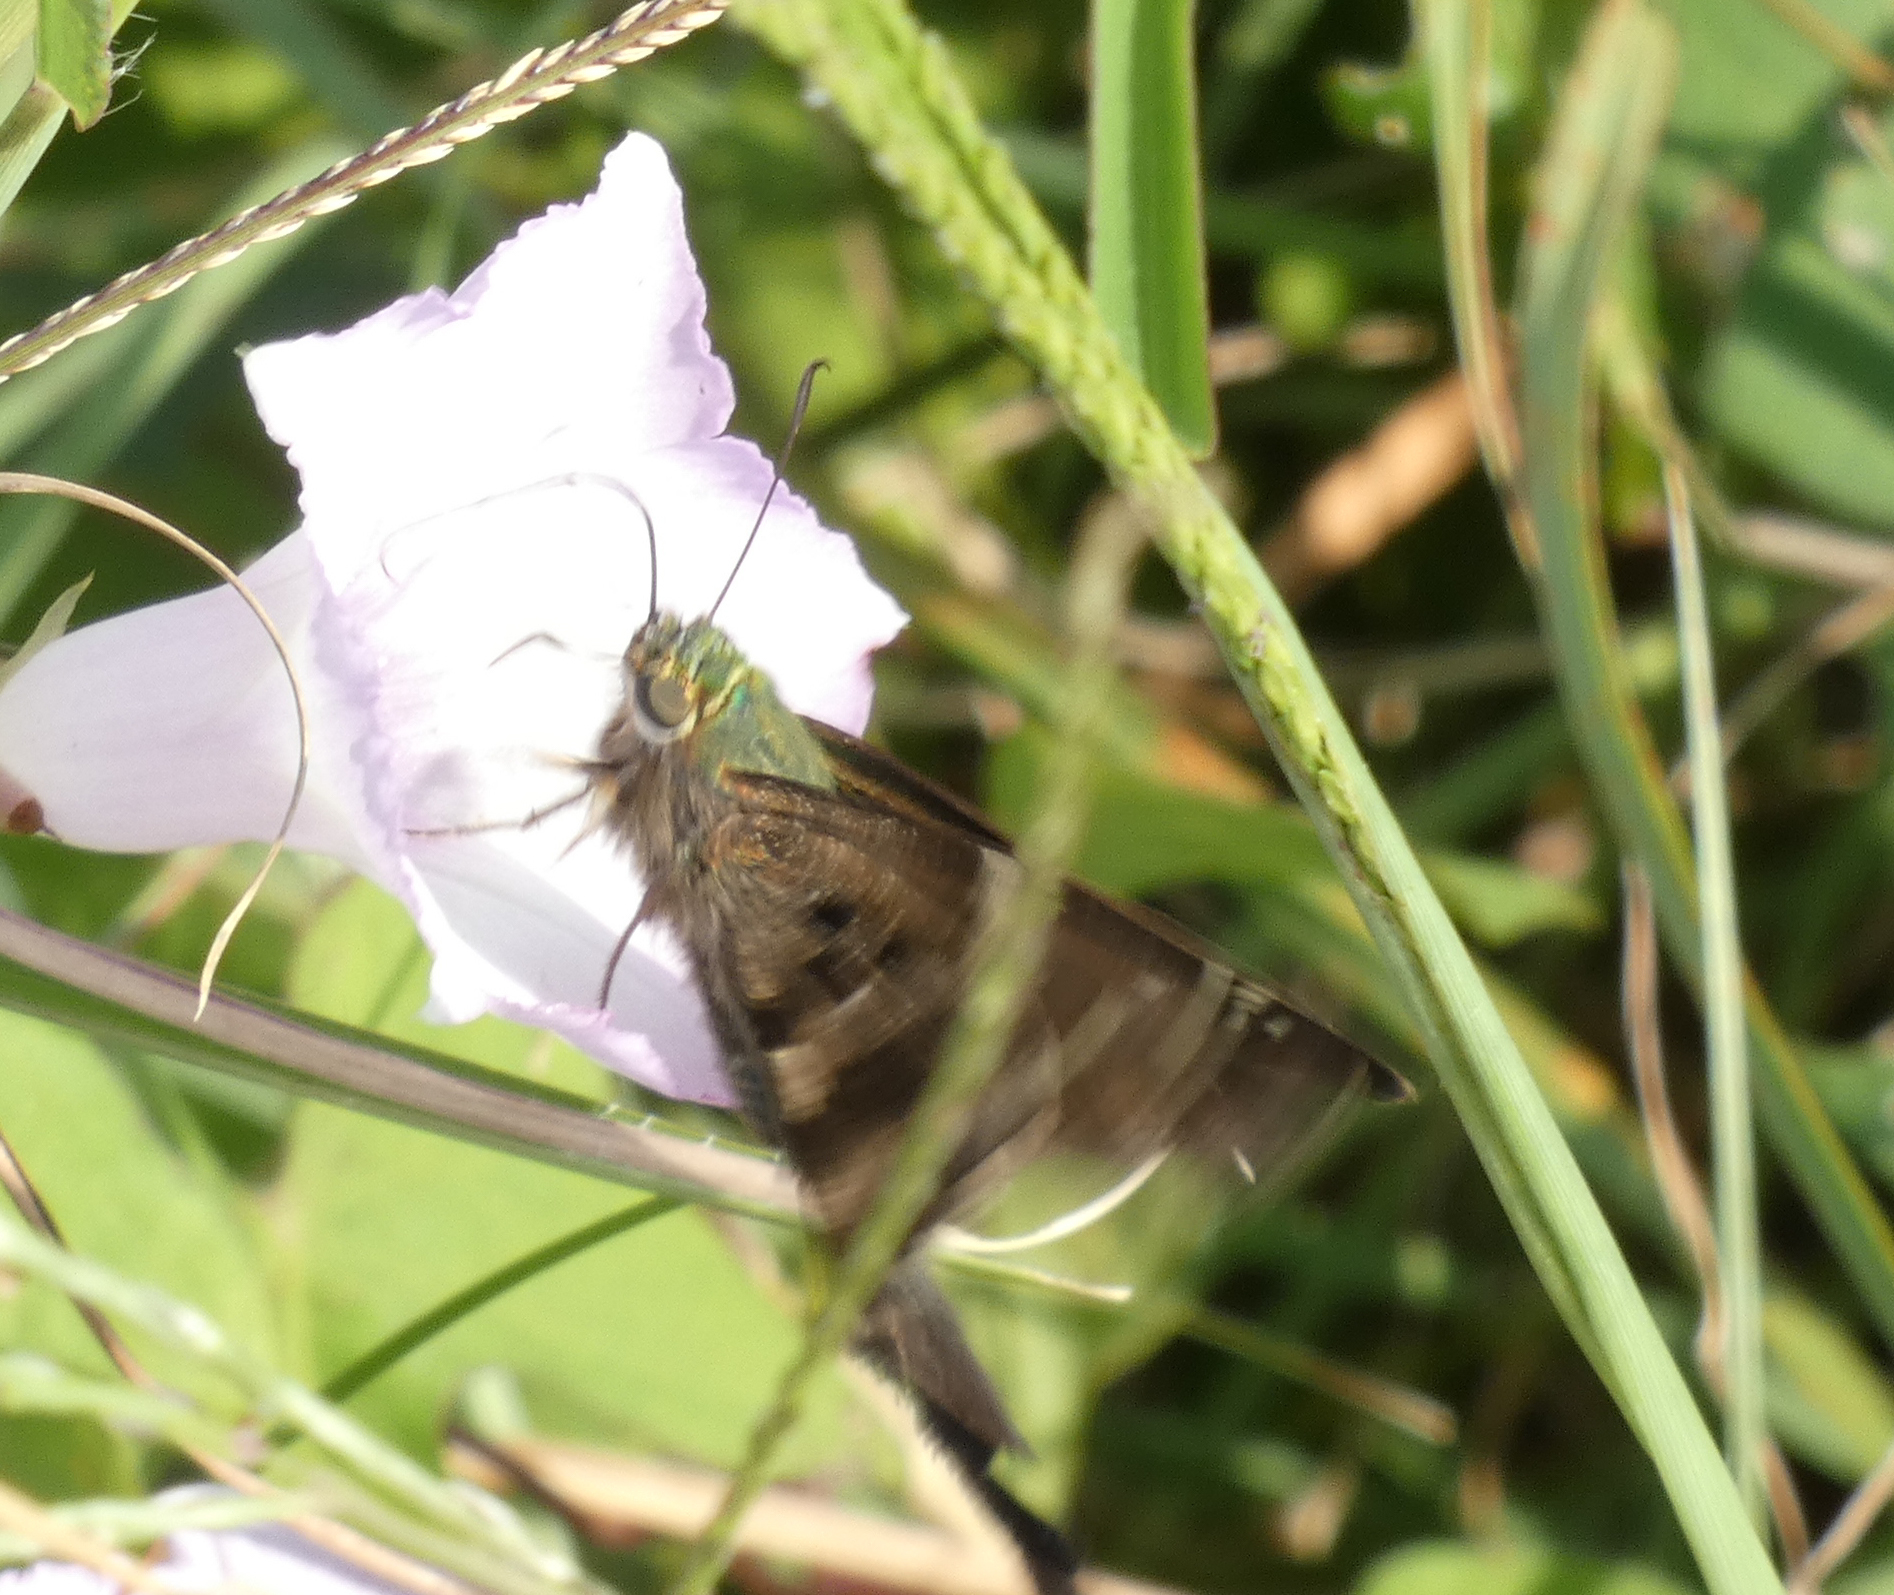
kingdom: Animalia
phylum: Arthropoda
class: Insecta
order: Lepidoptera
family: Hesperiidae
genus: Urbanus
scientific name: Urbanus proteus
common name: Long-tailed skipper
